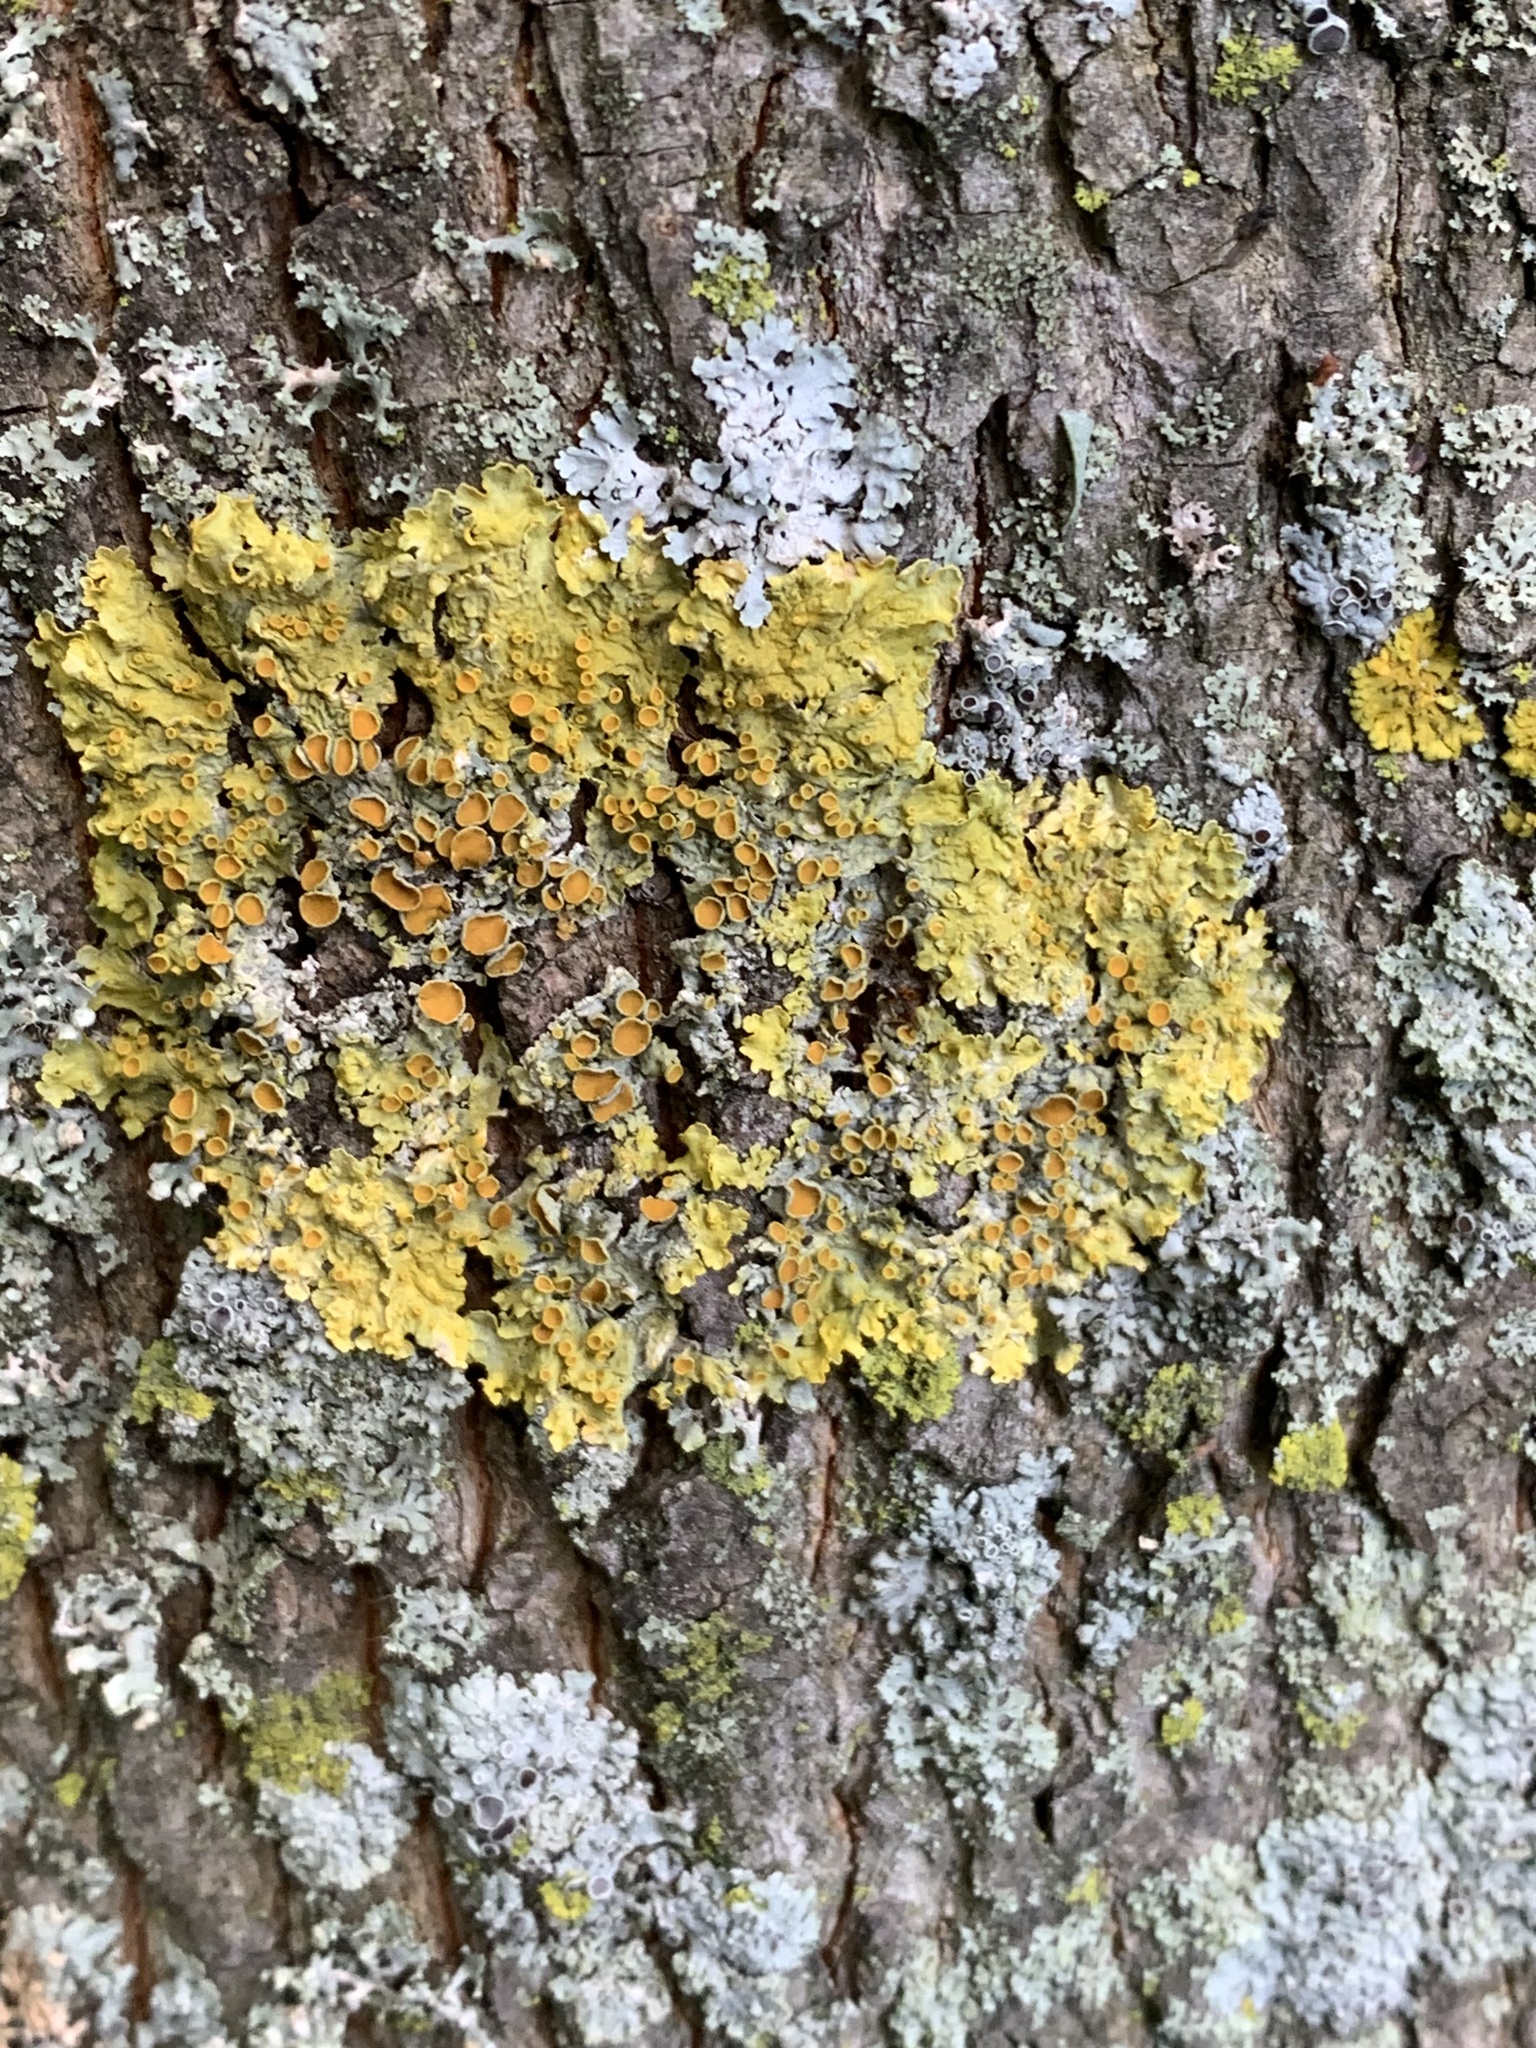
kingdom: Fungi
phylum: Ascomycota
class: Lecanoromycetes
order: Teloschistales
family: Teloschistaceae
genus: Xanthoria
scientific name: Xanthoria parietina
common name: Common orange lichen
